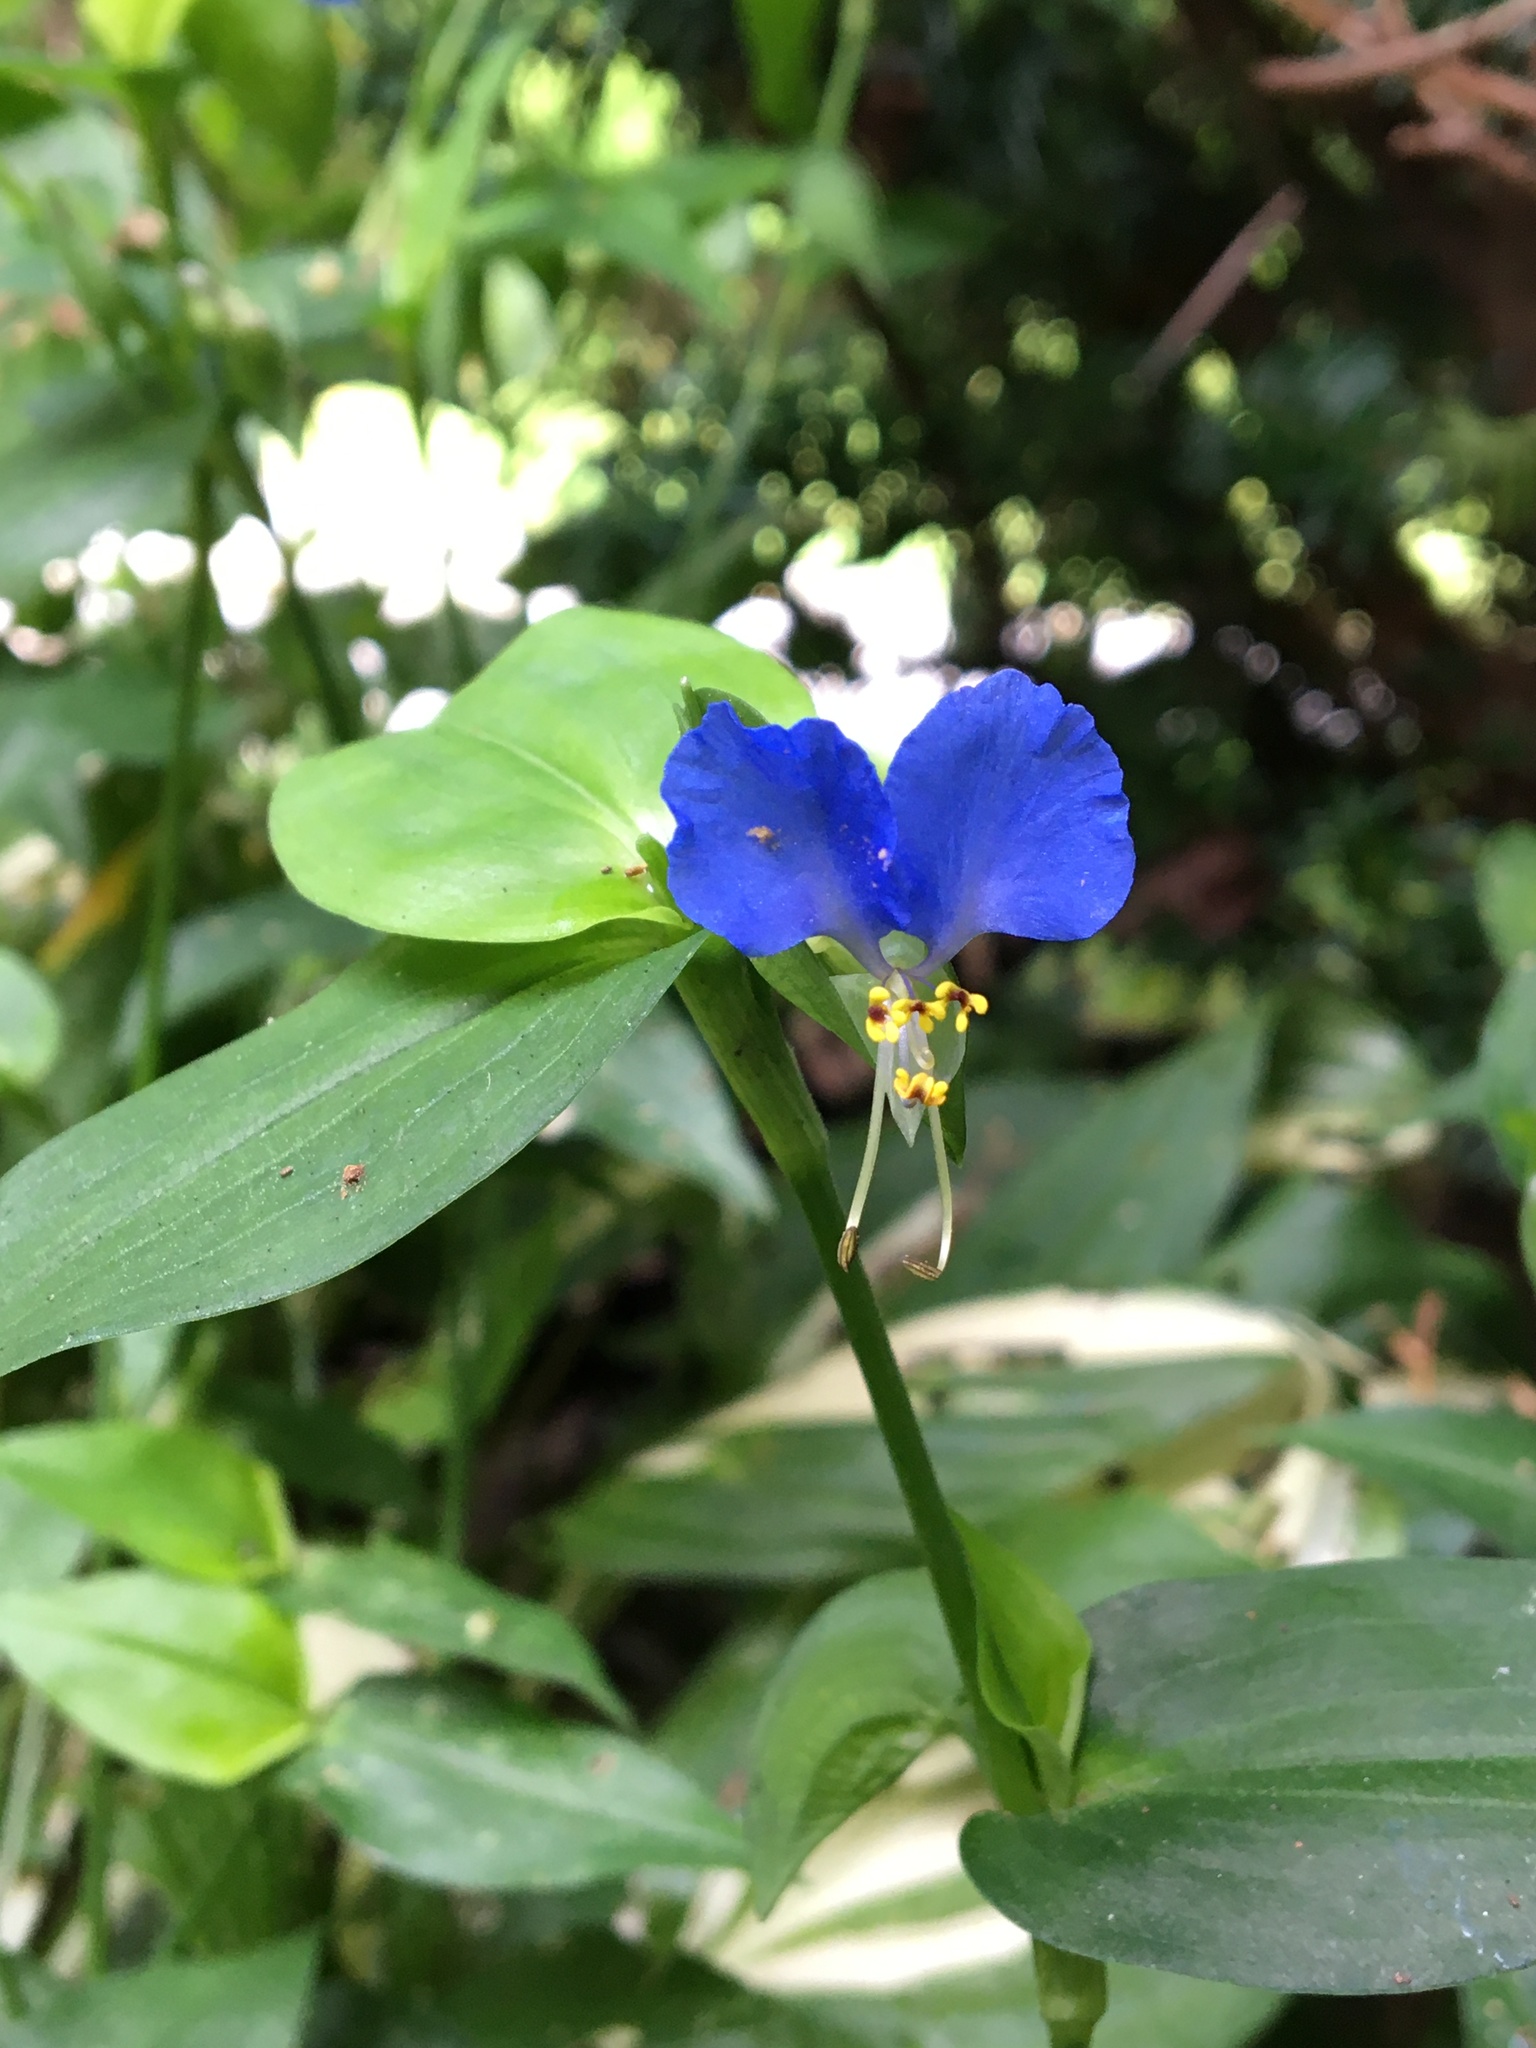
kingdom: Plantae
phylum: Tracheophyta
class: Liliopsida
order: Commelinales
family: Commelinaceae
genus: Commelina
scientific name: Commelina communis
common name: Asiatic dayflower
